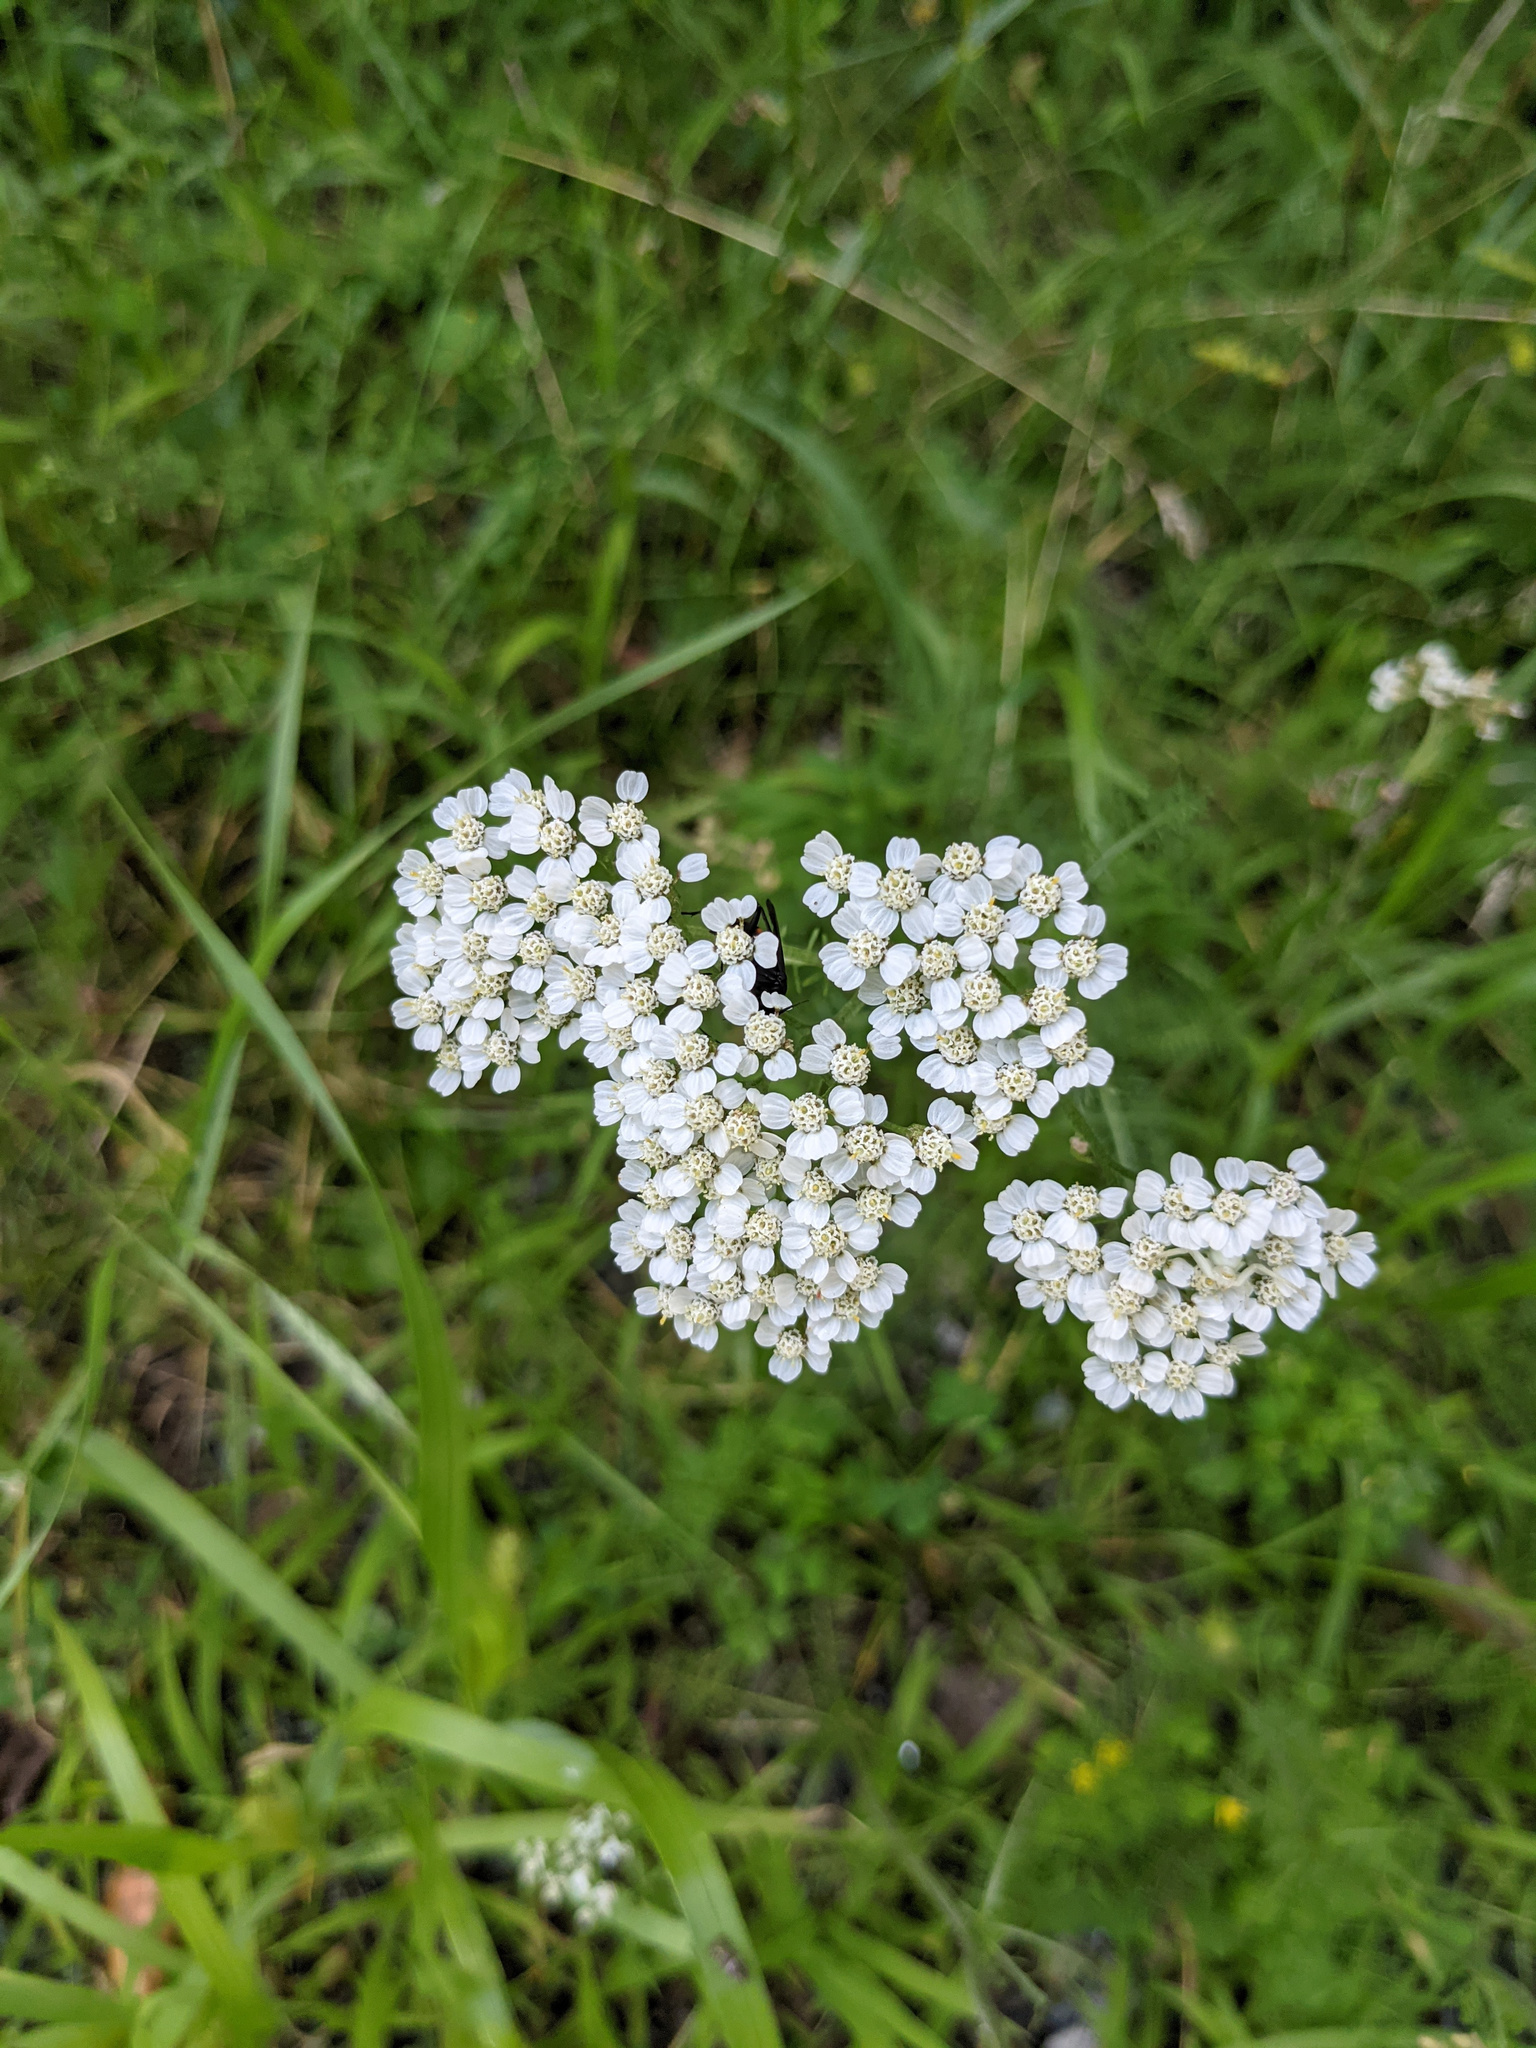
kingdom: Plantae
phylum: Tracheophyta
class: Magnoliopsida
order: Asterales
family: Asteraceae
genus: Achillea
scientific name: Achillea millefolium
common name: Yarrow
